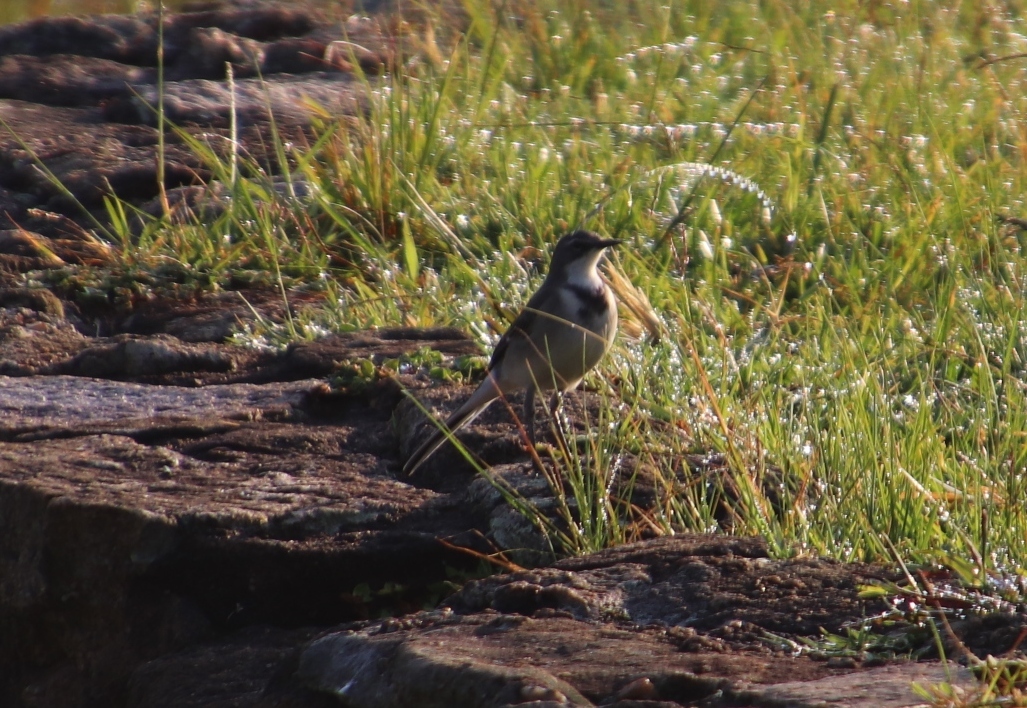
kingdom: Animalia
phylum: Chordata
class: Aves
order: Passeriformes
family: Motacillidae
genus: Motacilla
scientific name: Motacilla capensis
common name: Cape wagtail
